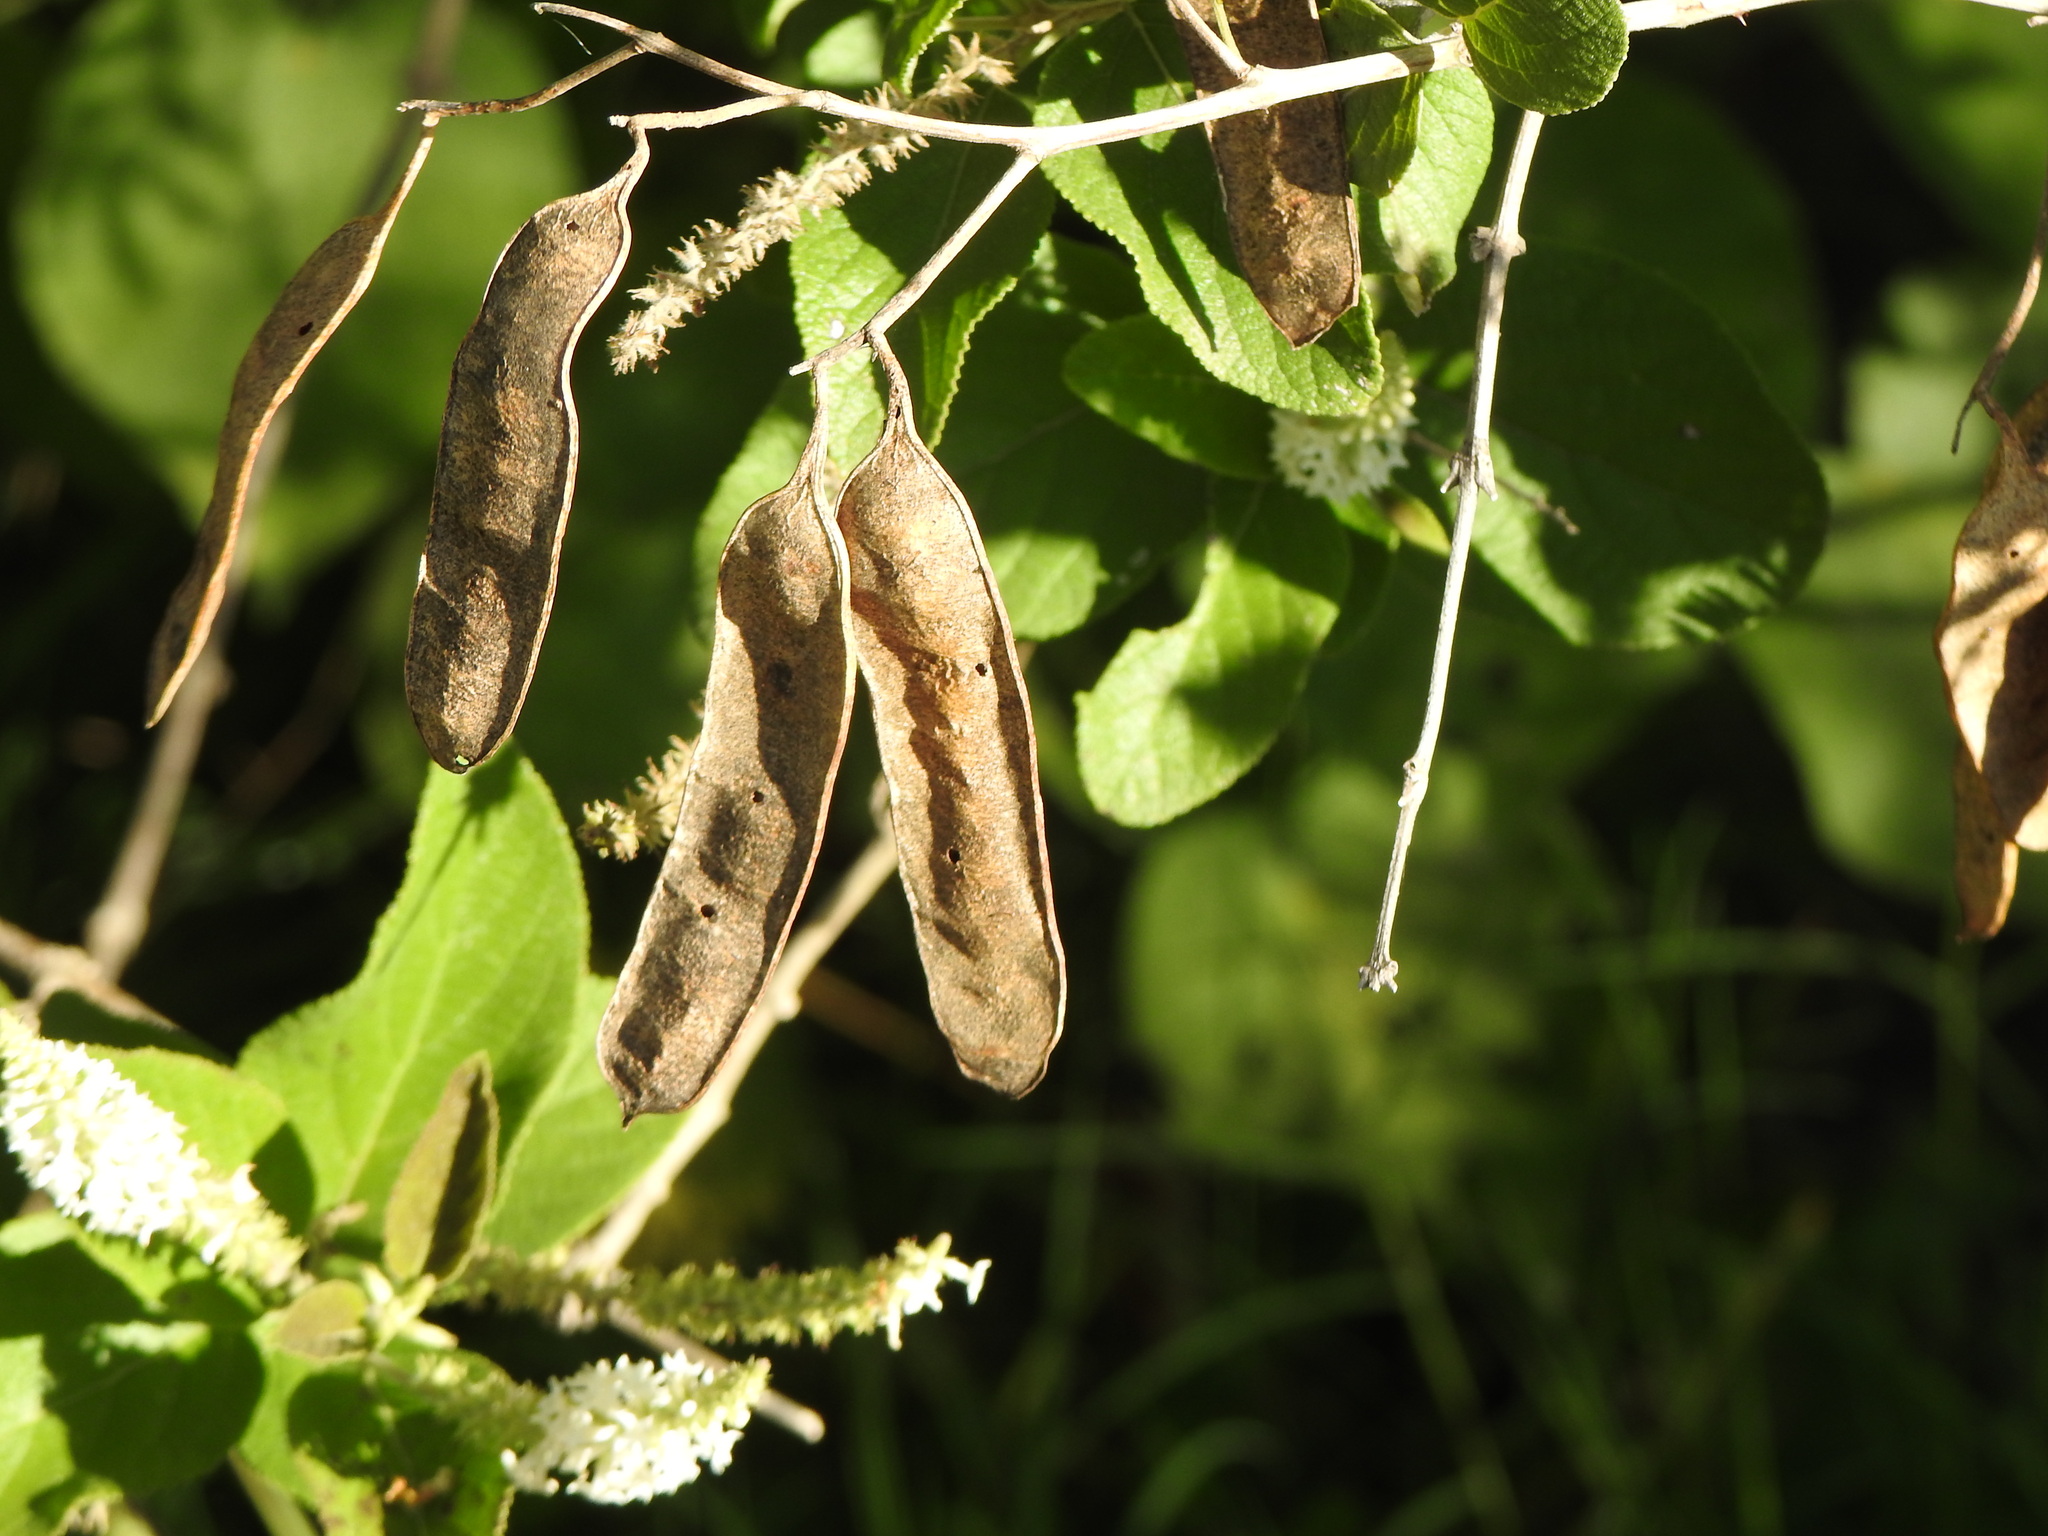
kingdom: Plantae
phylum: Tracheophyta
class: Magnoliopsida
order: Fabales
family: Fabaceae
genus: Senegalia
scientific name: Senegalia bonariensis
